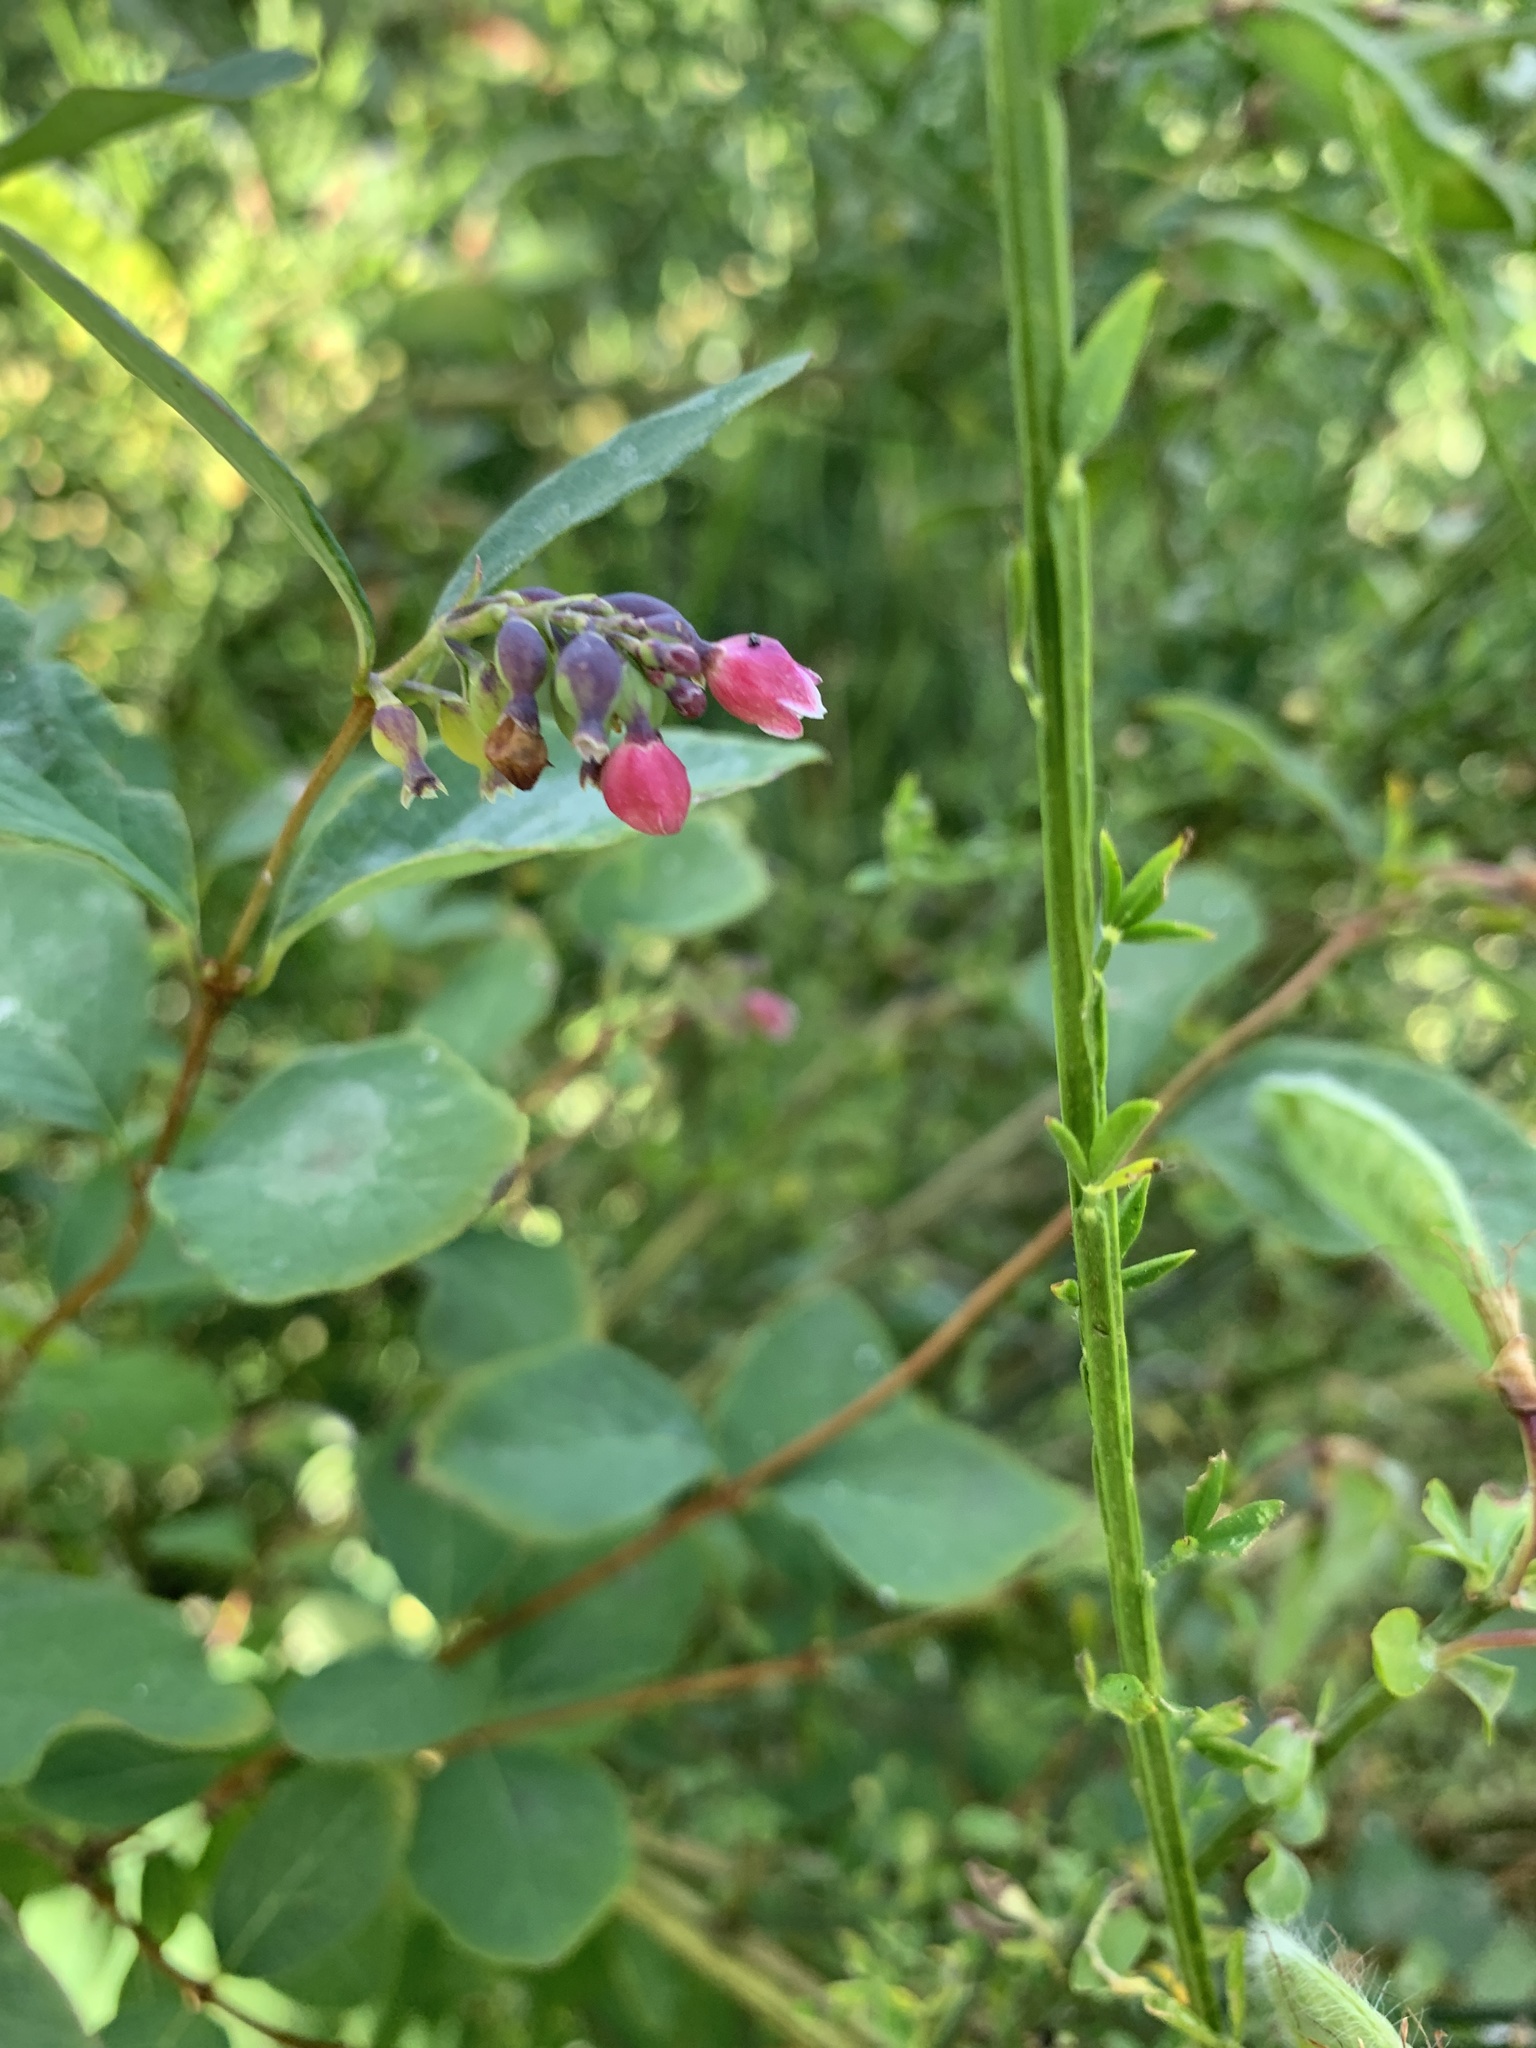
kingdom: Plantae
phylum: Tracheophyta
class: Magnoliopsida
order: Dipsacales
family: Caprifoliaceae
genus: Symphoricarpos
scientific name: Symphoricarpos albus
